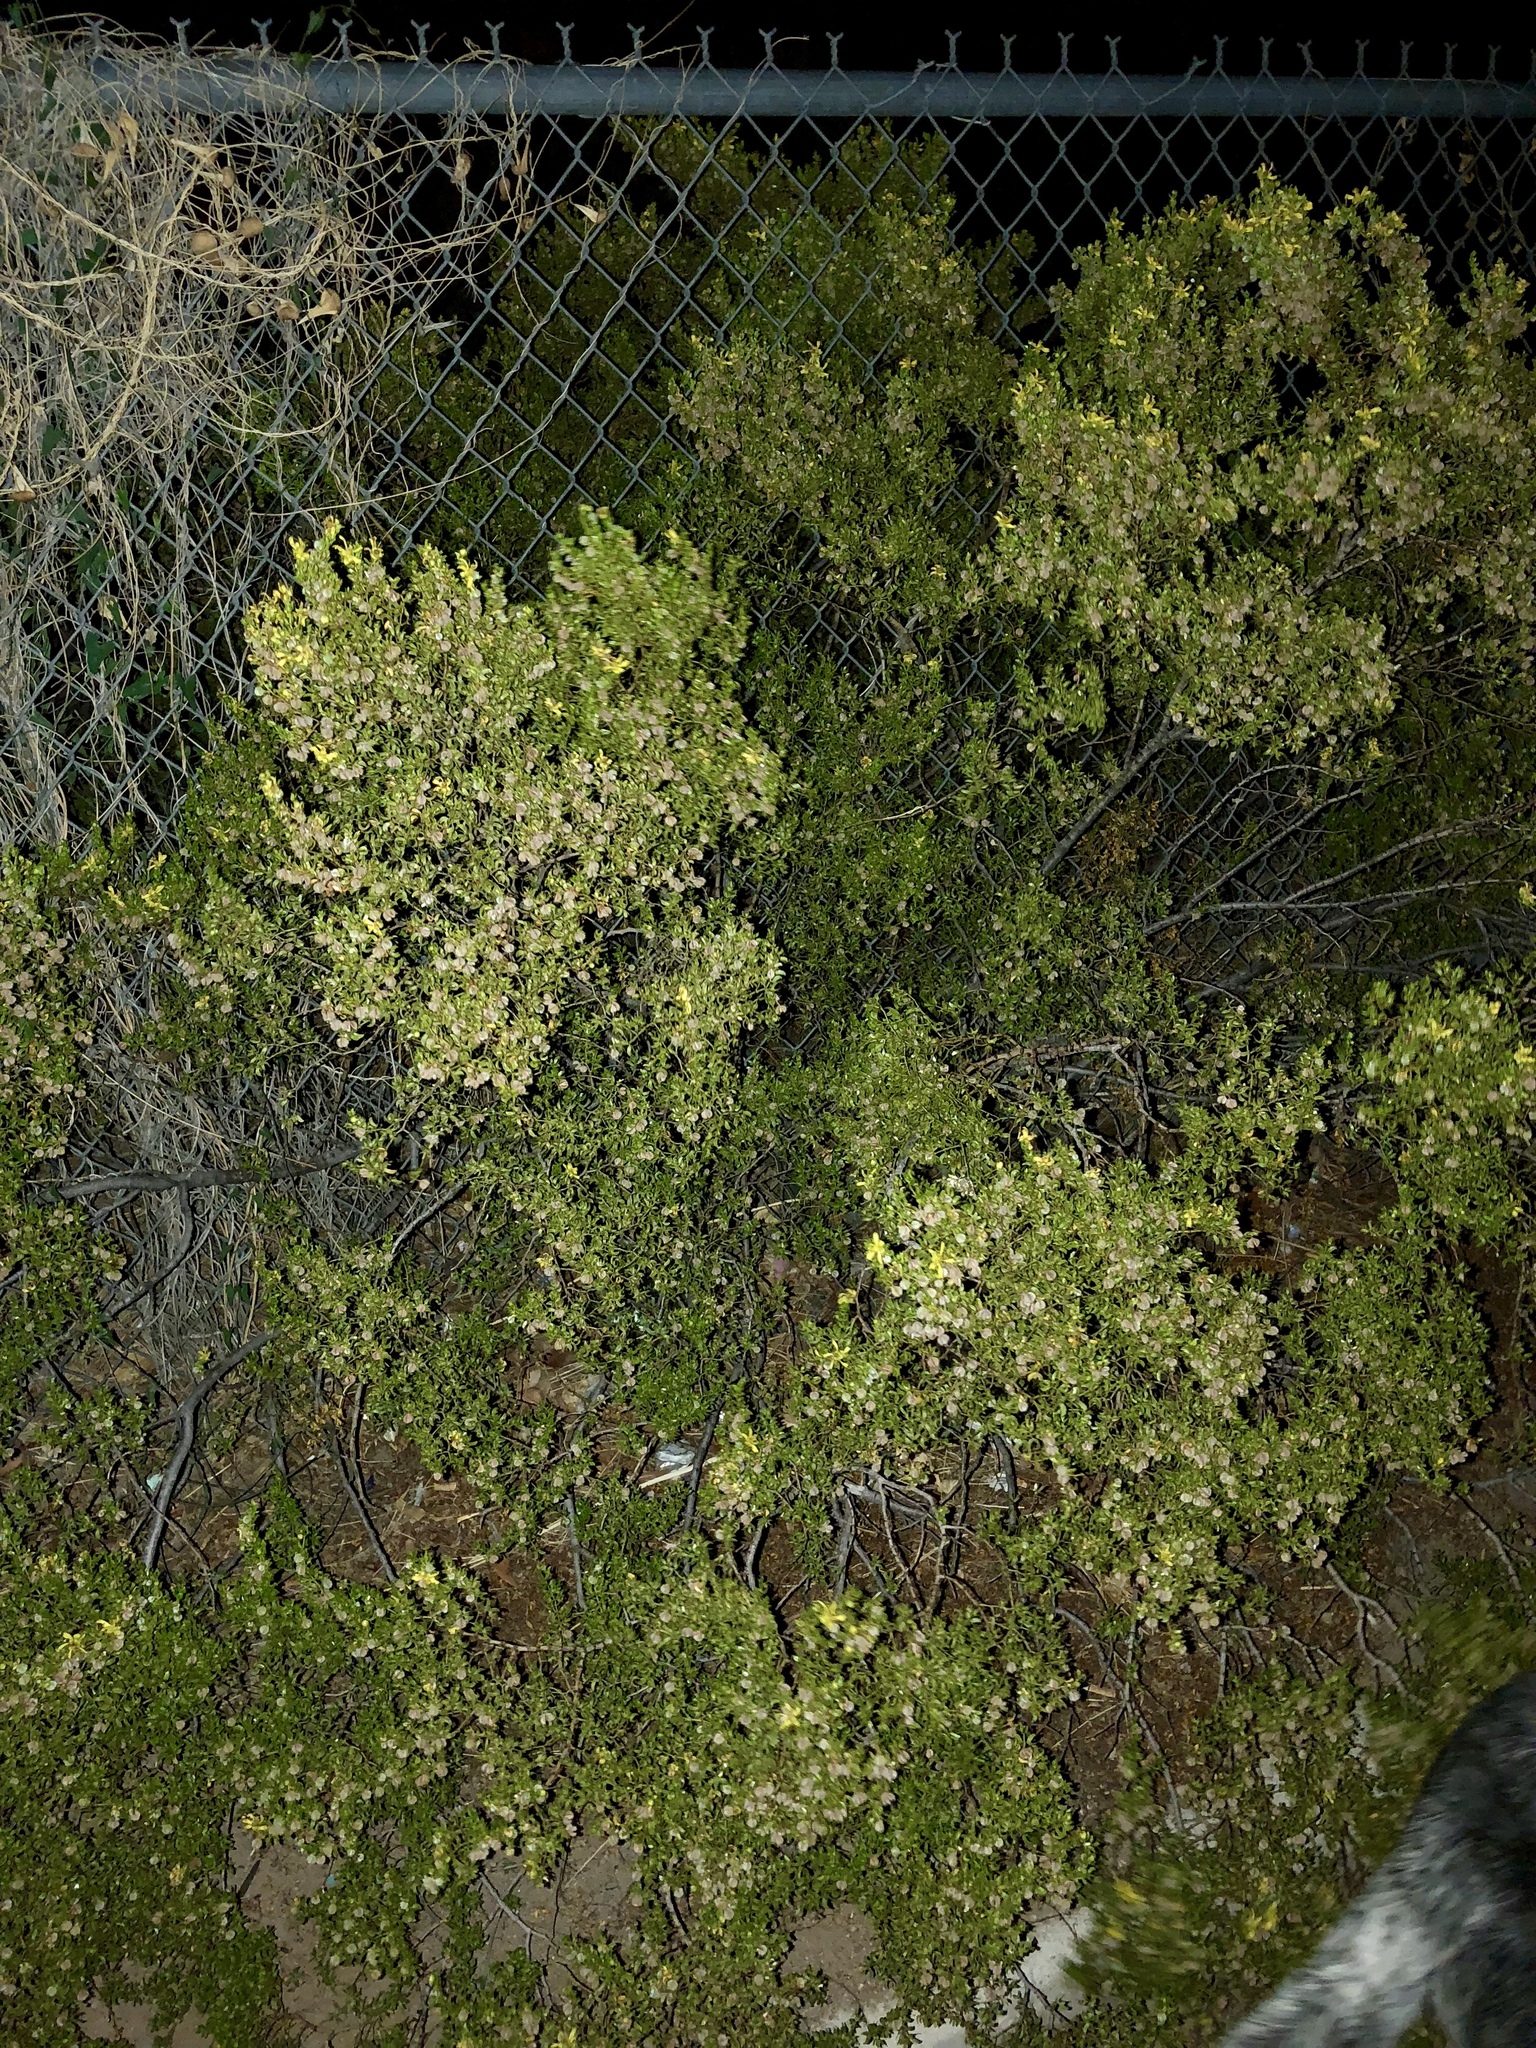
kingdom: Plantae
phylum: Tracheophyta
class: Magnoliopsida
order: Zygophyllales
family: Zygophyllaceae
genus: Larrea
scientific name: Larrea tridentata
